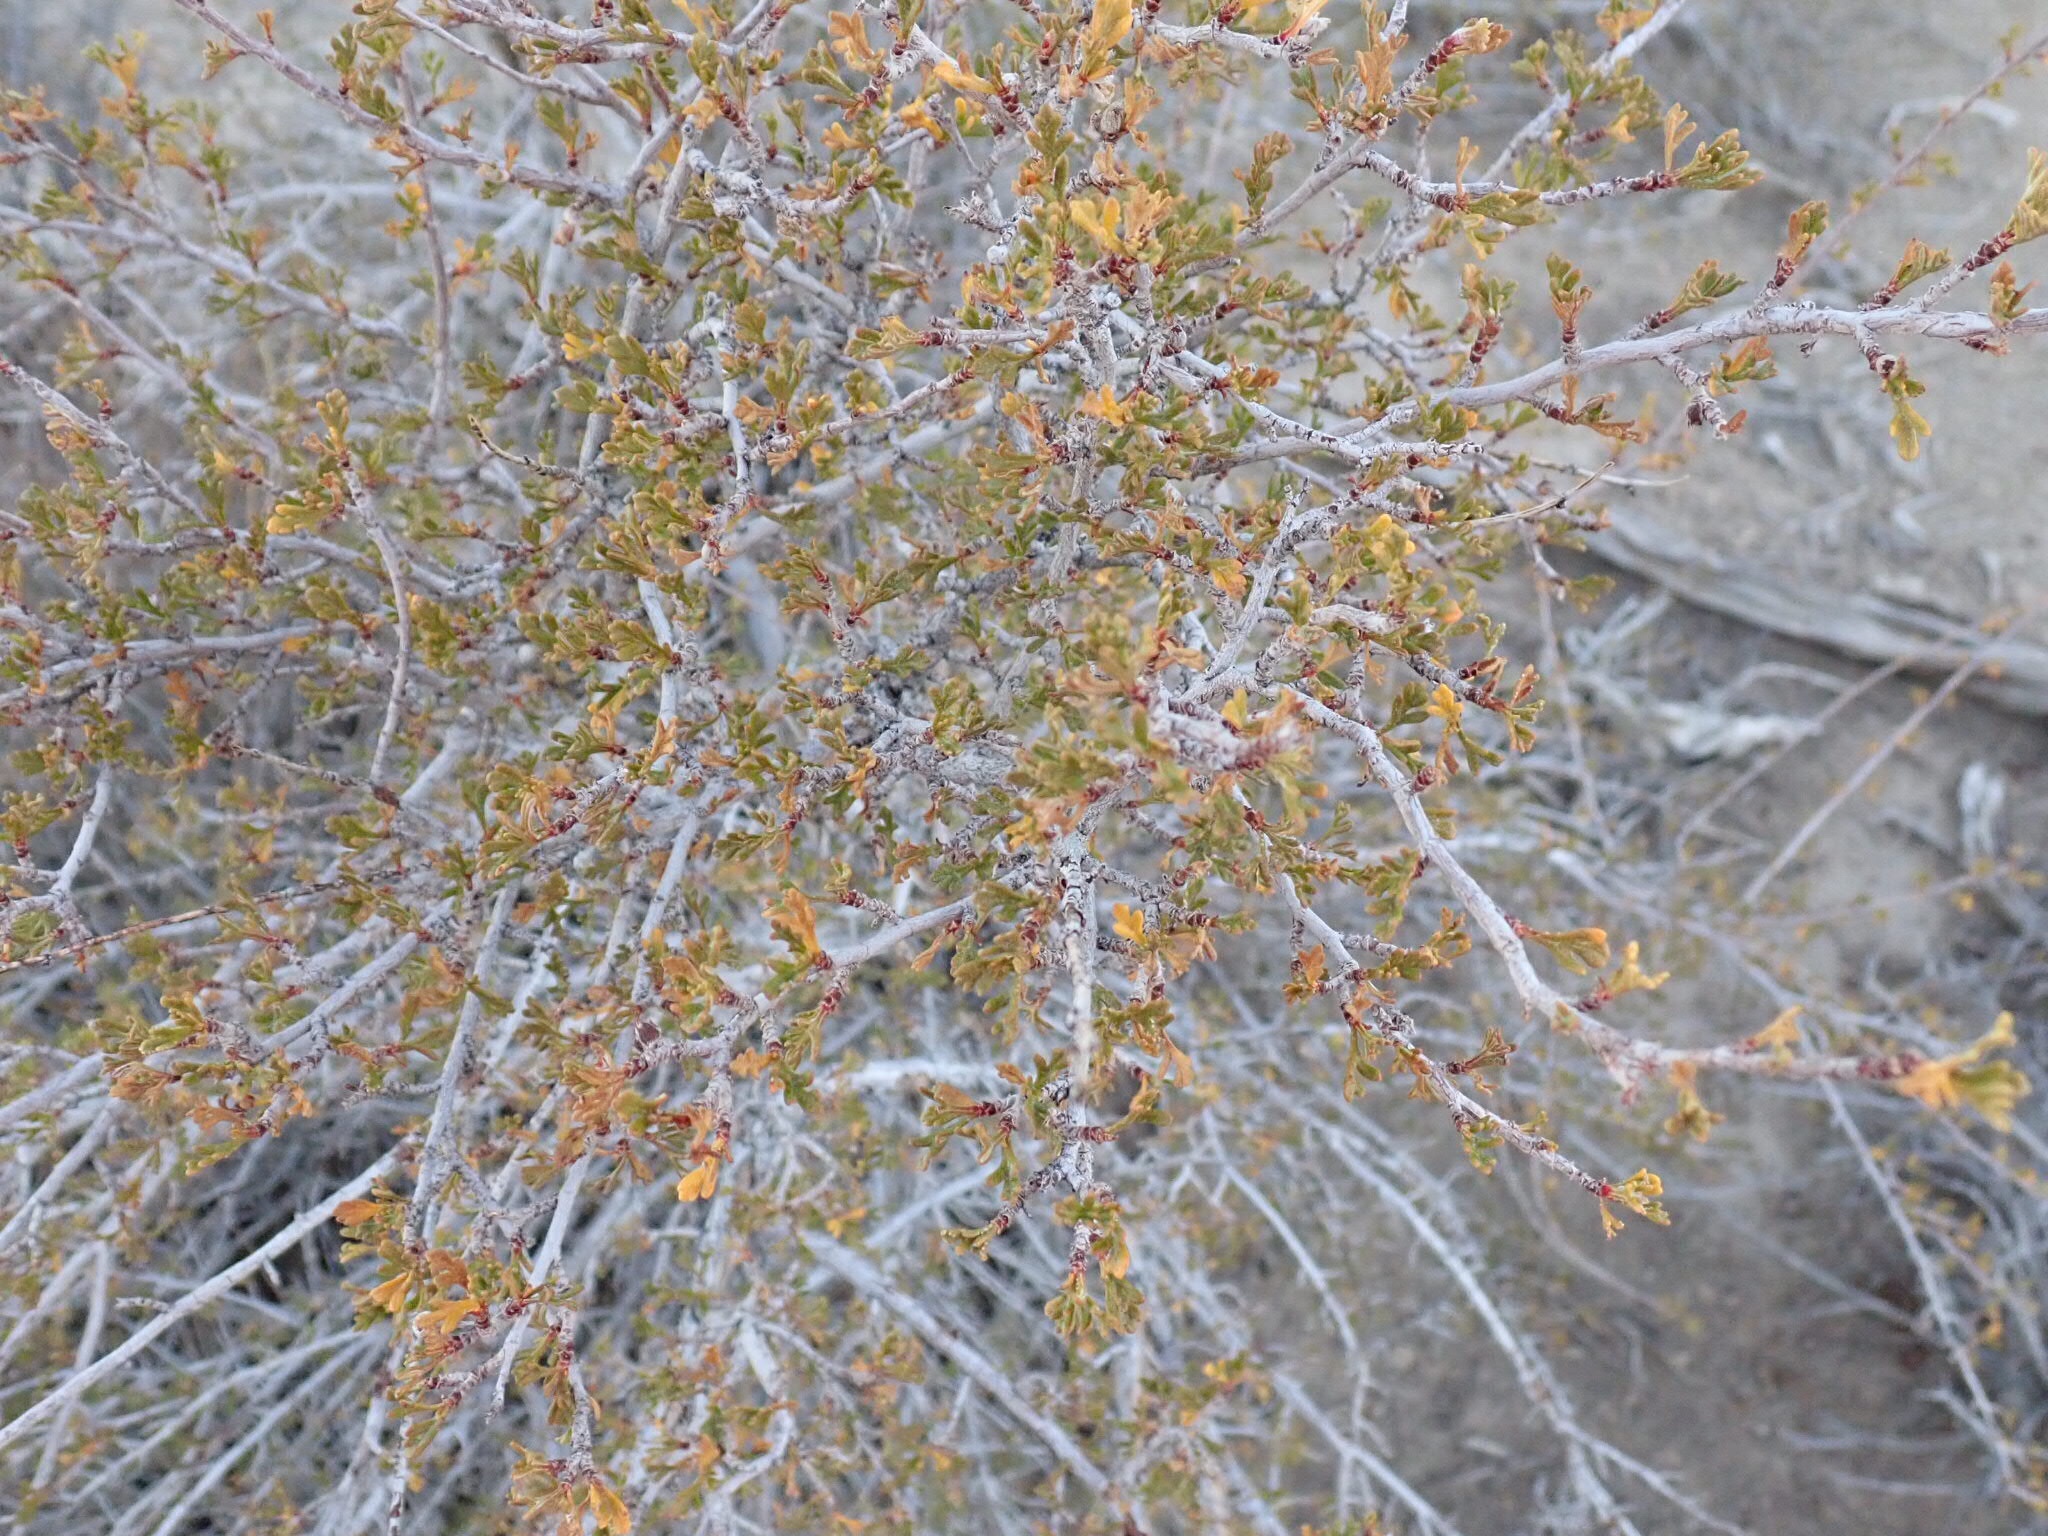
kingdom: Plantae
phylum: Tracheophyta
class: Magnoliopsida
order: Rosales
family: Rosaceae
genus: Purshia
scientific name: Purshia stansburiana
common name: Stansbury's cliffrose
